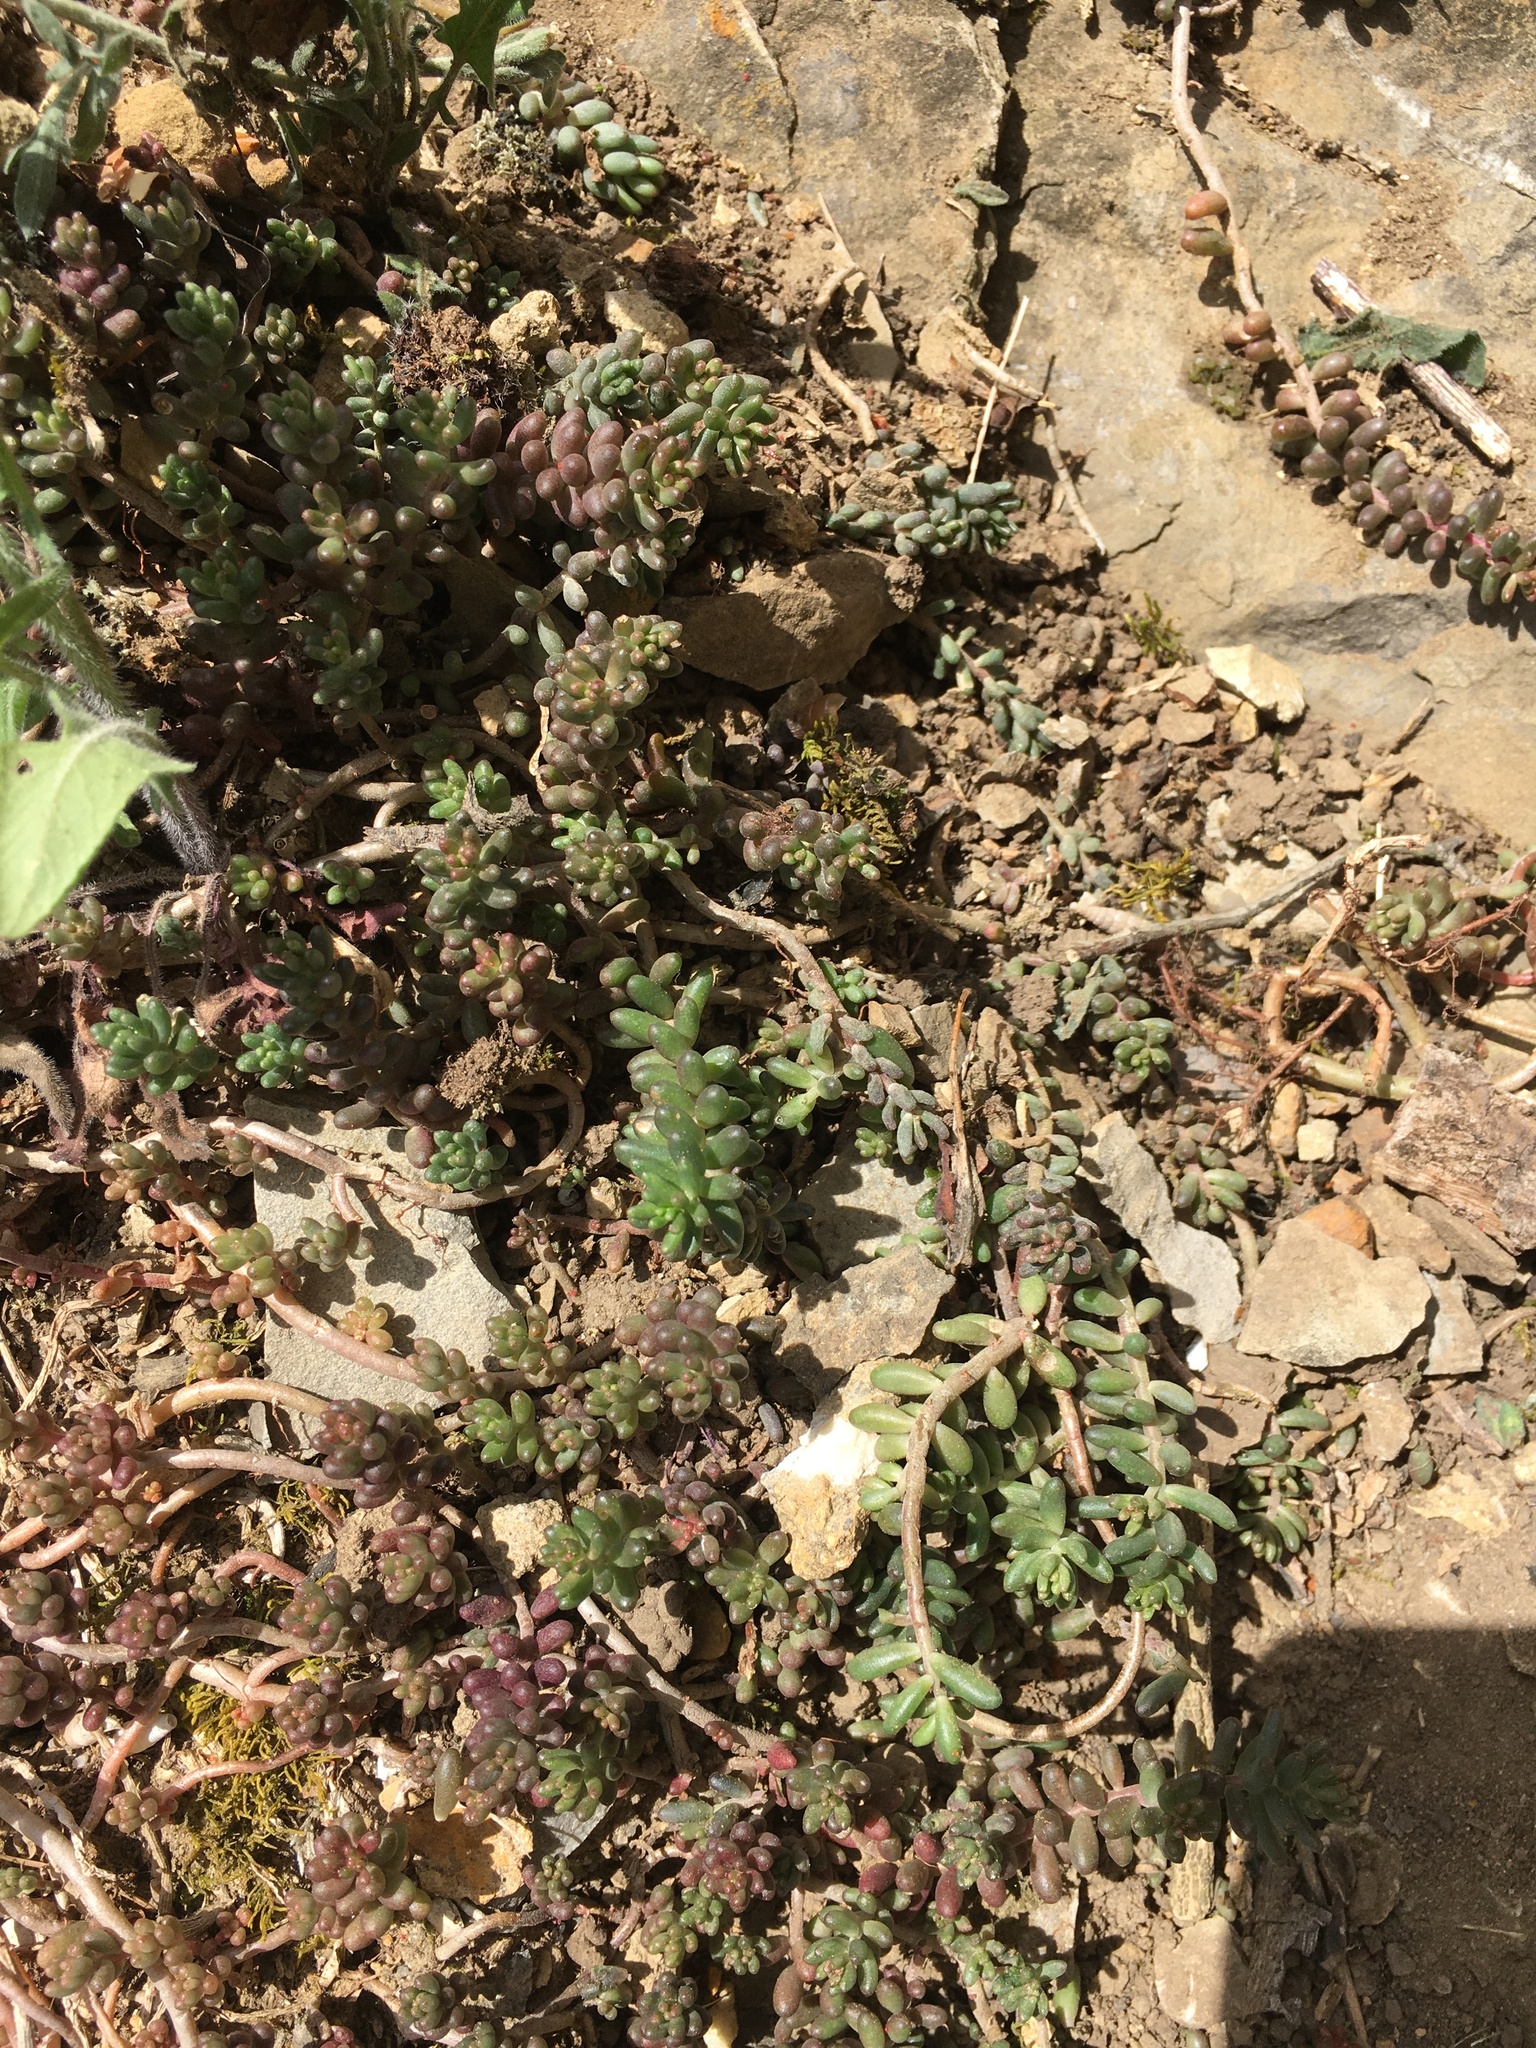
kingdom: Plantae
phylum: Tracheophyta
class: Magnoliopsida
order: Saxifragales
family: Crassulaceae
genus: Sedum
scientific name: Sedum album
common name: White stonecrop
